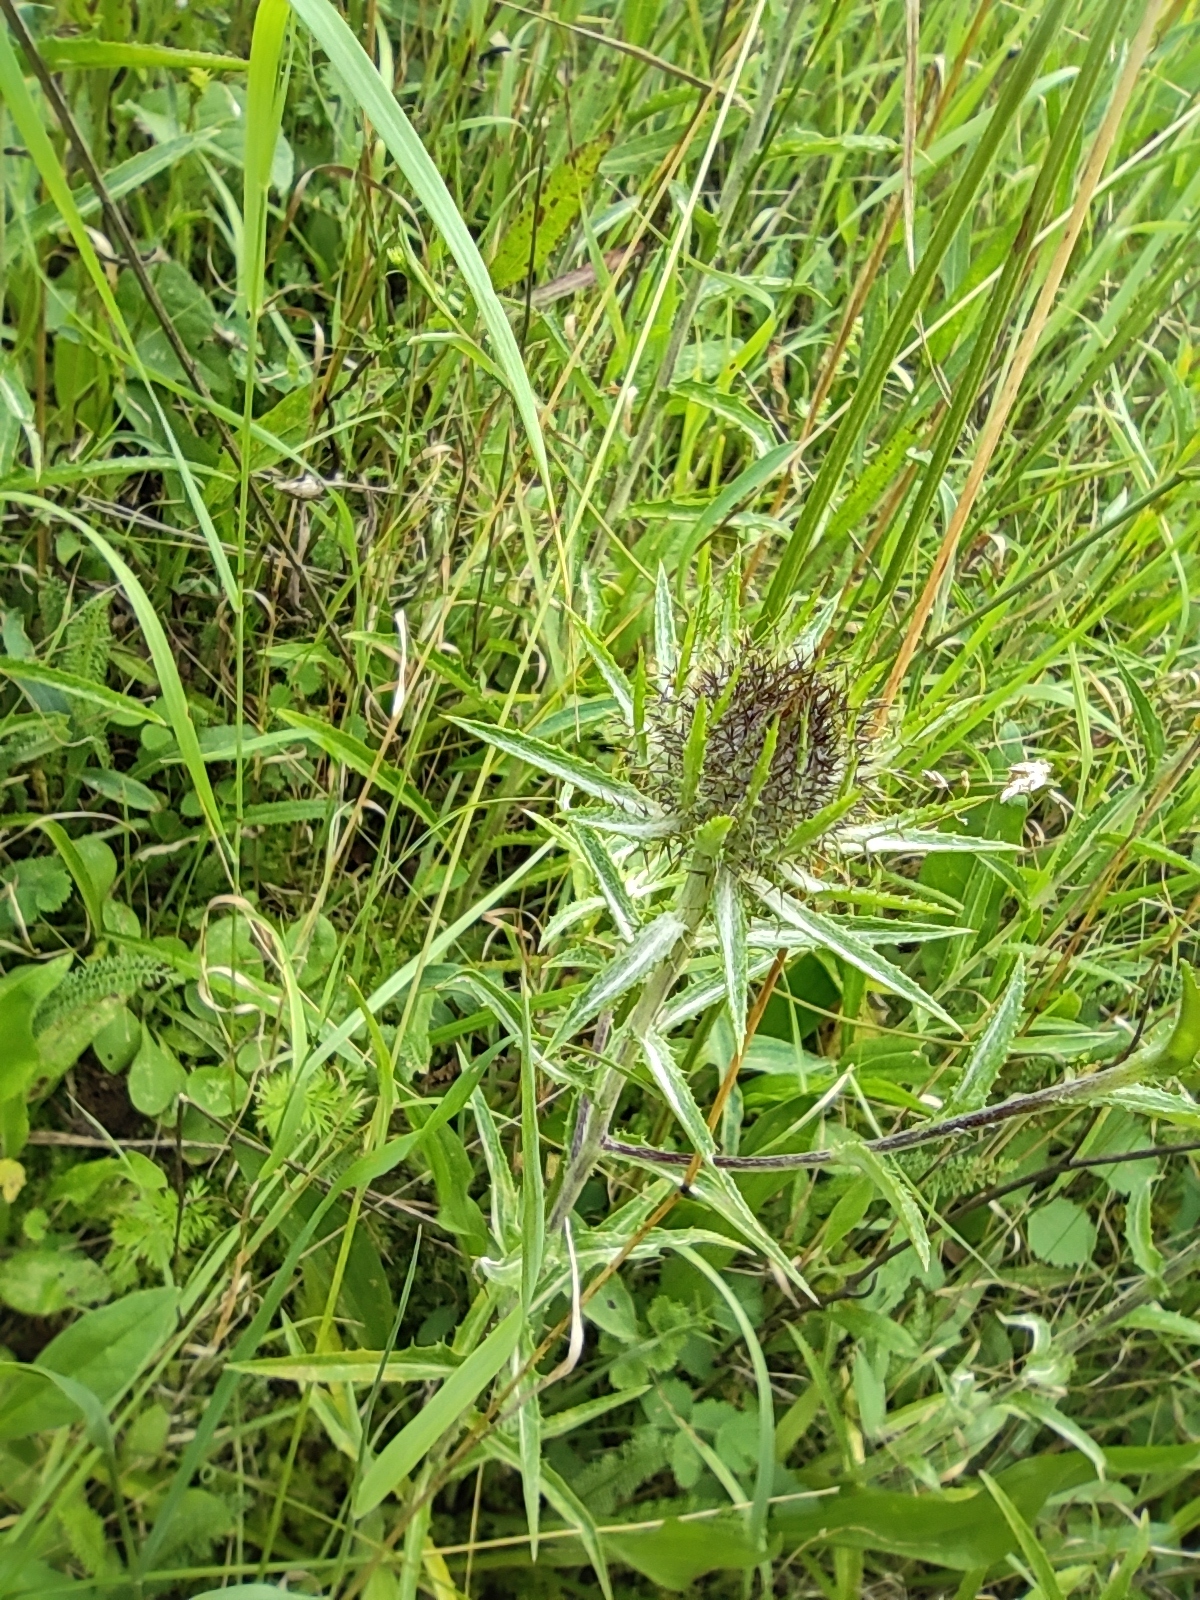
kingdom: Plantae
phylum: Tracheophyta
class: Magnoliopsida
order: Asterales
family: Asteraceae
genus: Carlina
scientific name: Carlina biebersteinii
